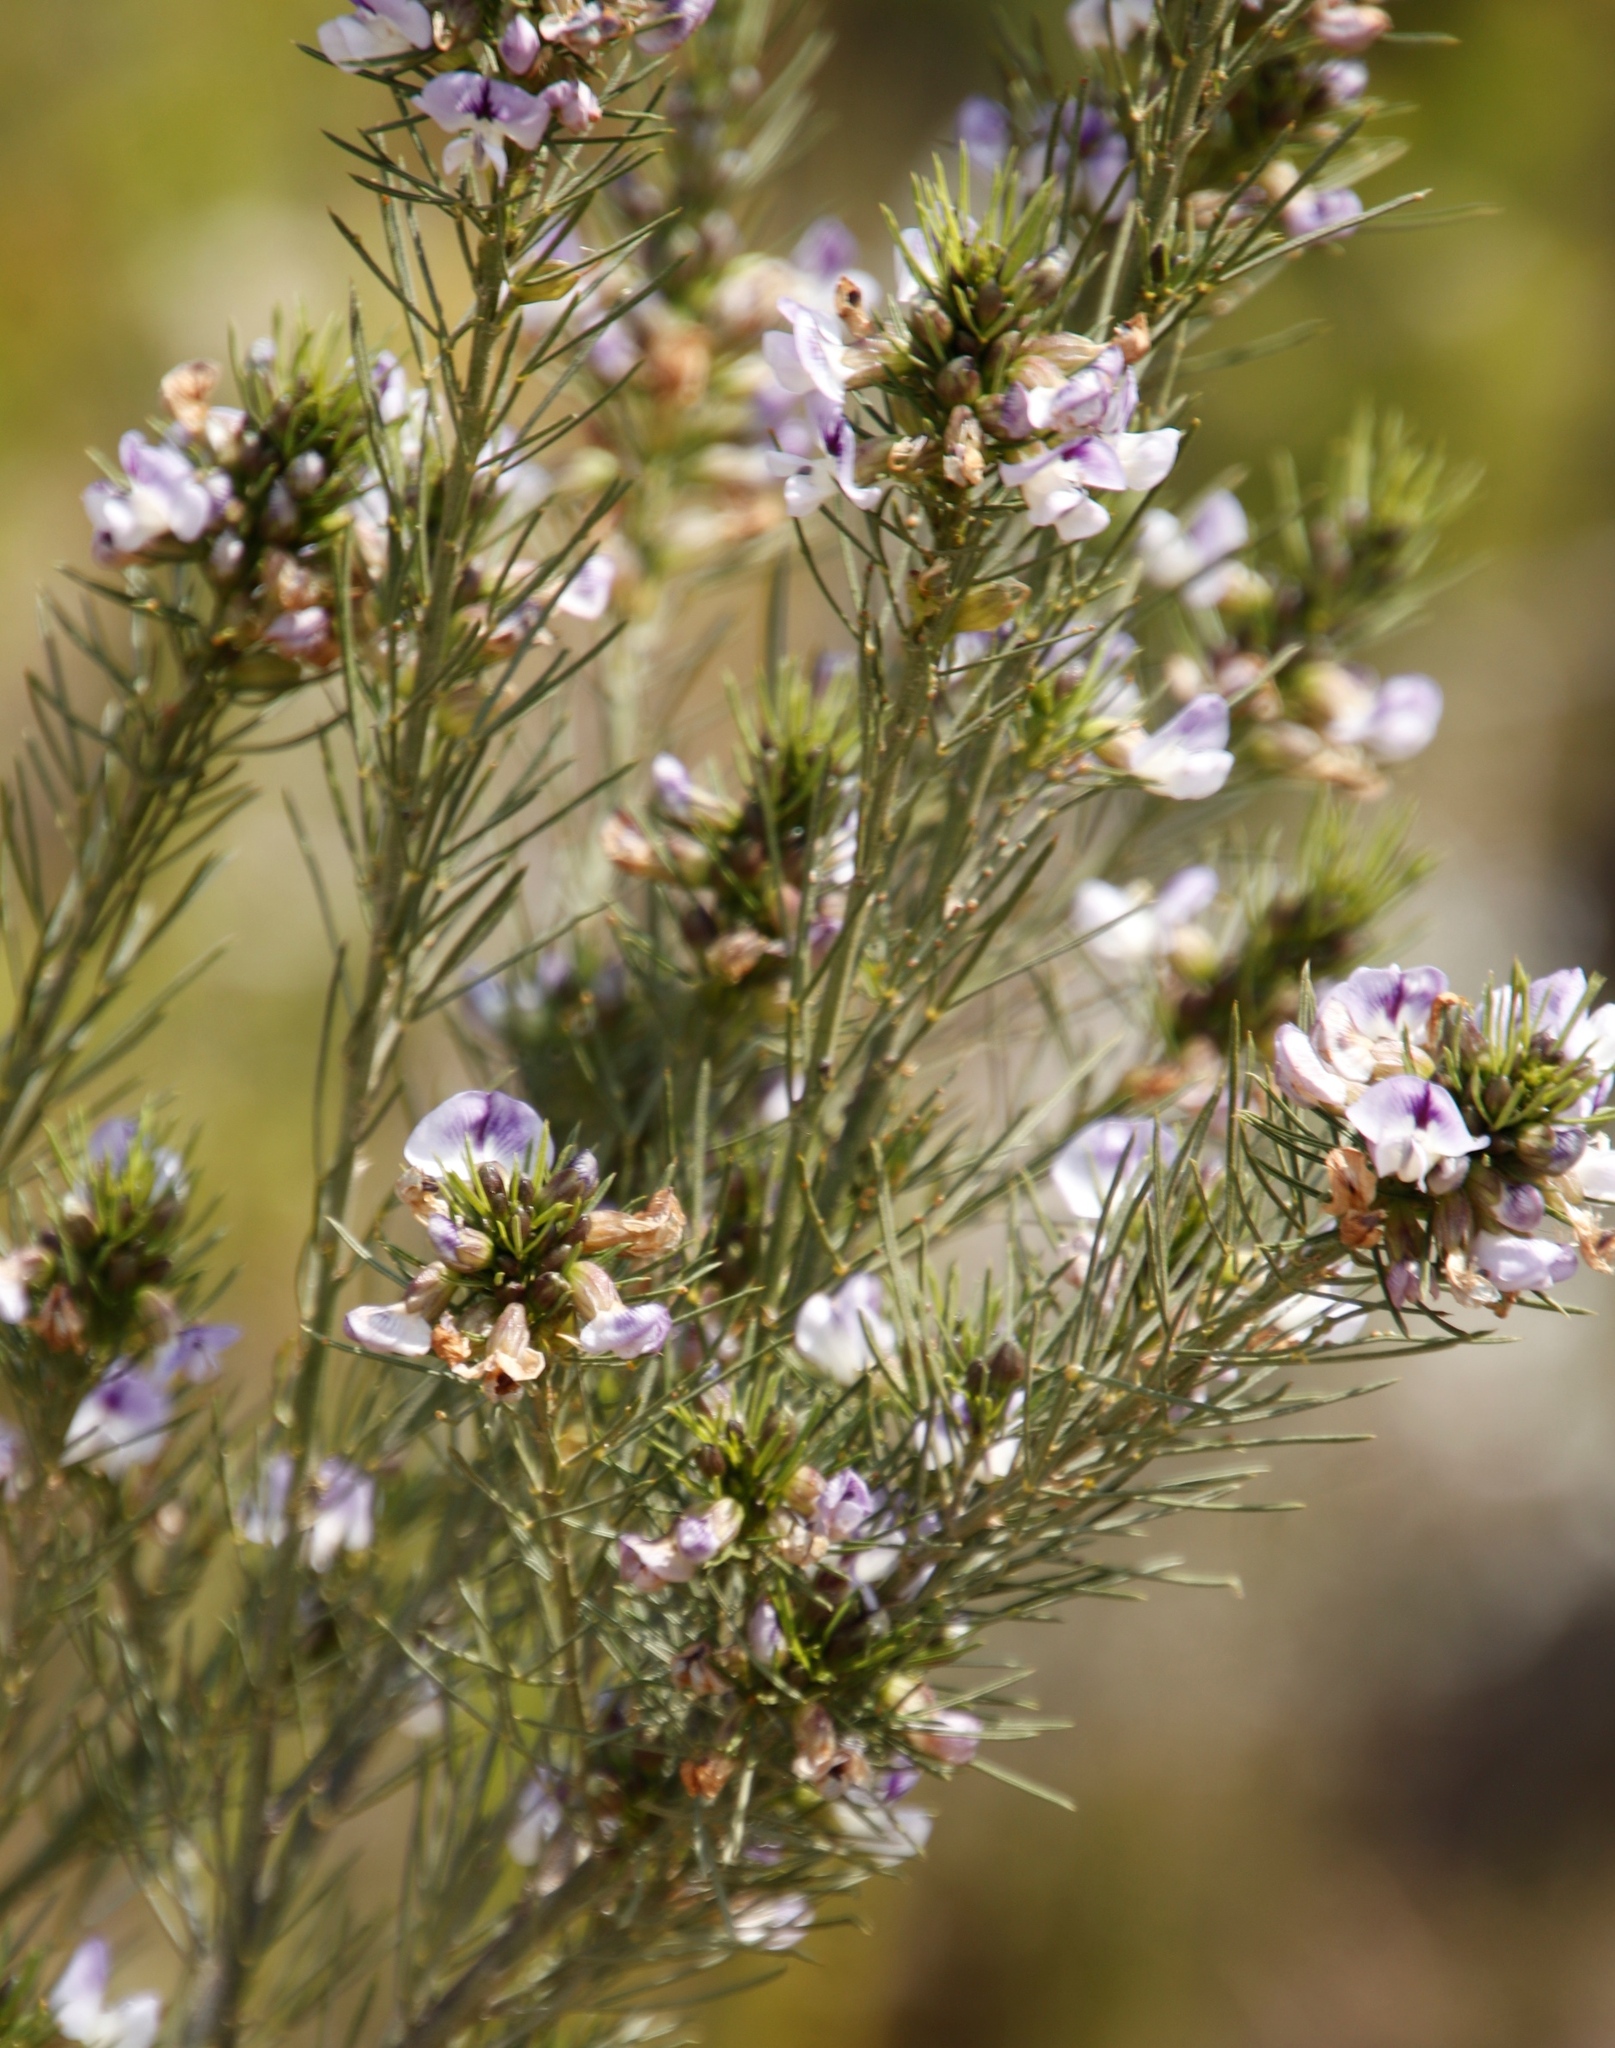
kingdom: Plantae
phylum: Tracheophyta
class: Magnoliopsida
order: Fabales
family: Fabaceae
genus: Psoralea
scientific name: Psoralea
